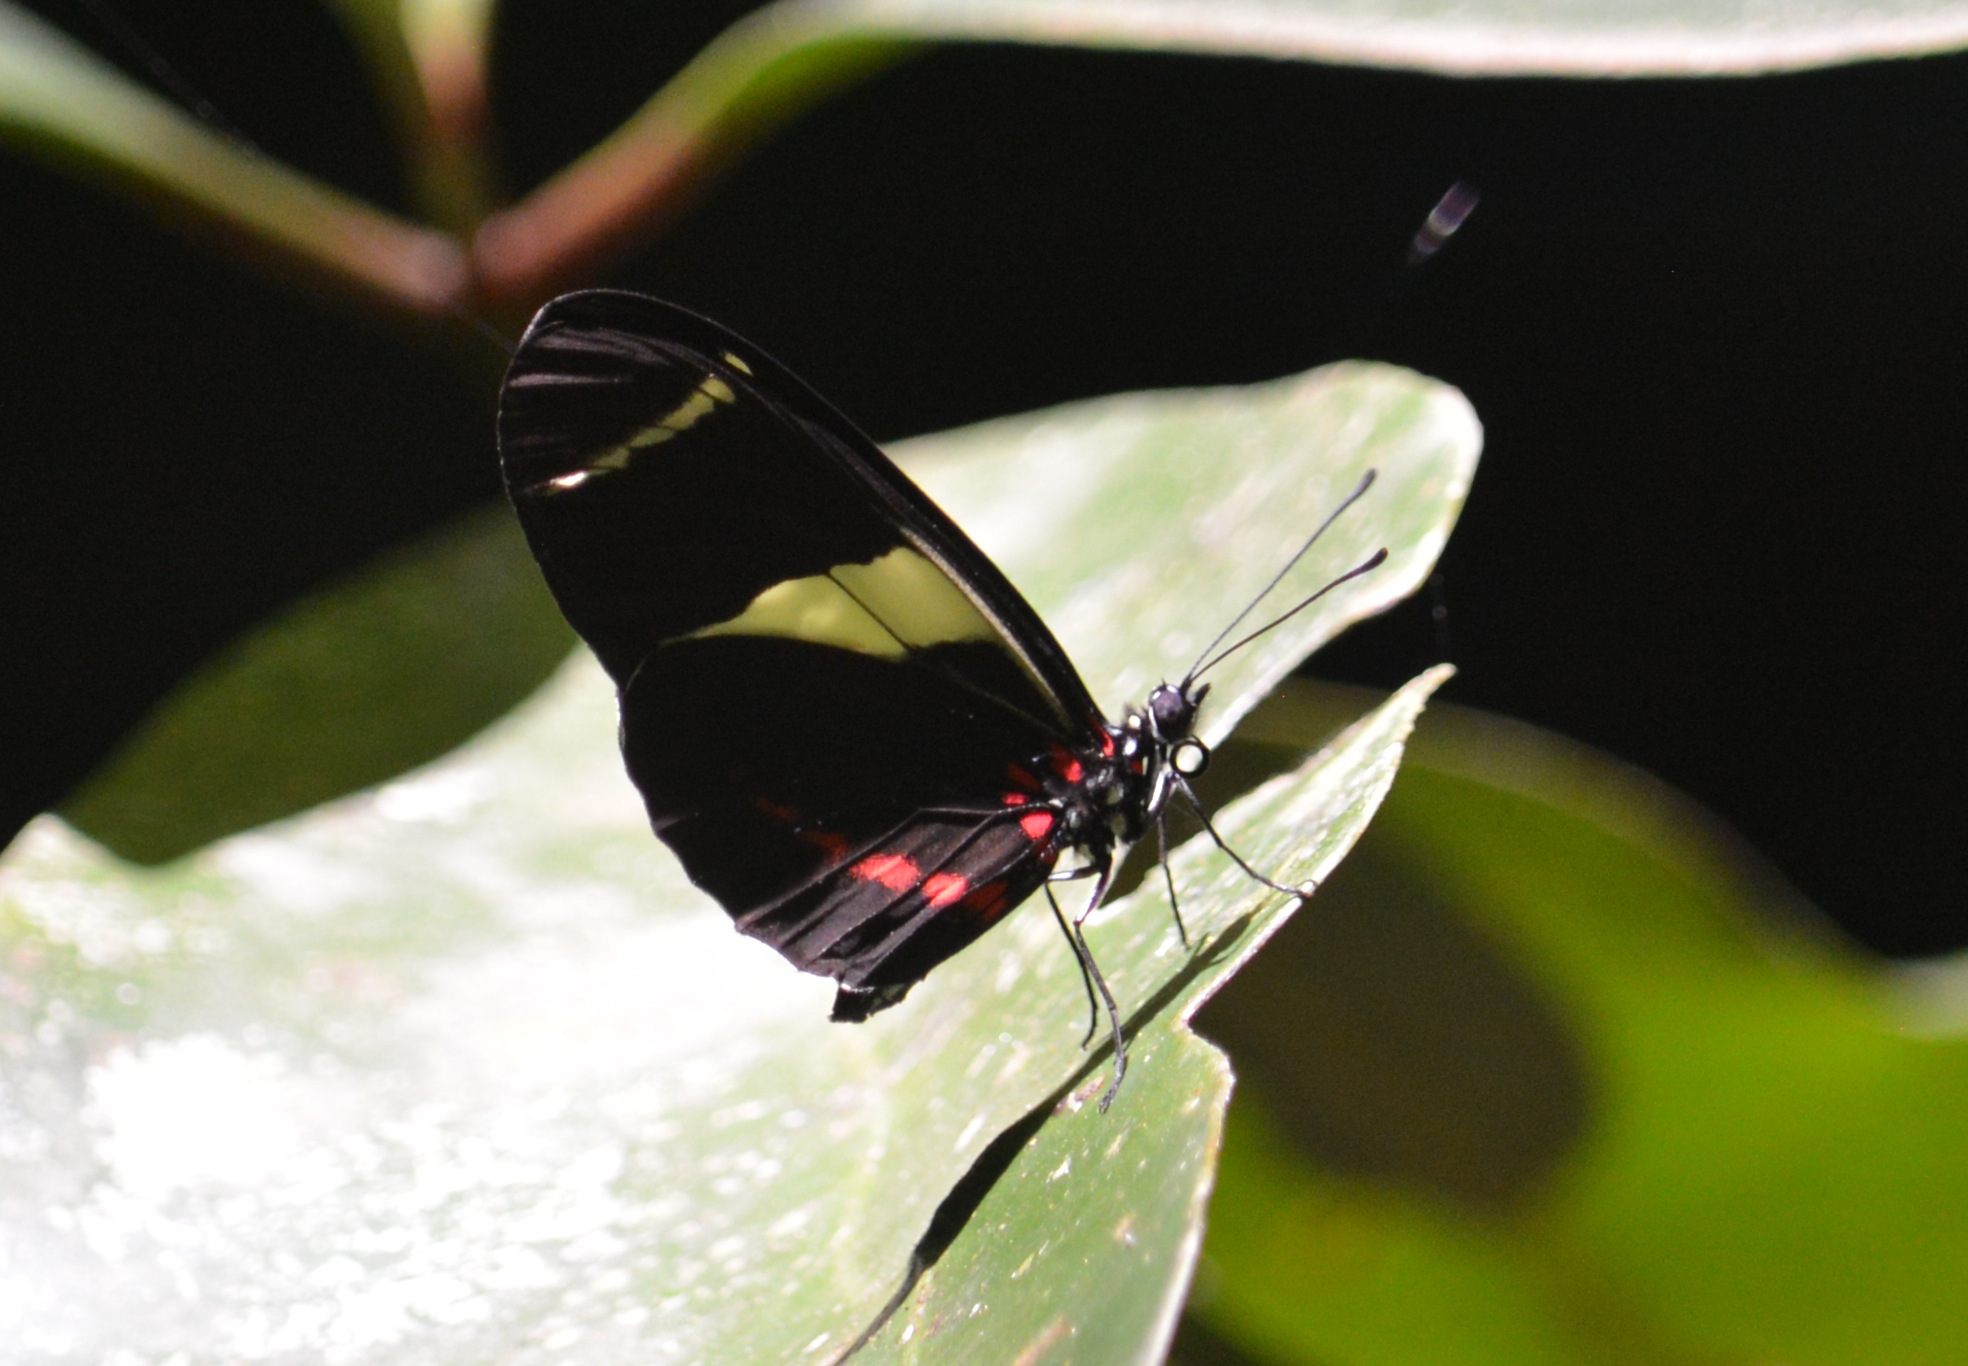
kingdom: Animalia
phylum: Arthropoda
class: Insecta
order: Lepidoptera
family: Nymphalidae
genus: Heliconius
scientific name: Heliconius sara
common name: Sara longwing
